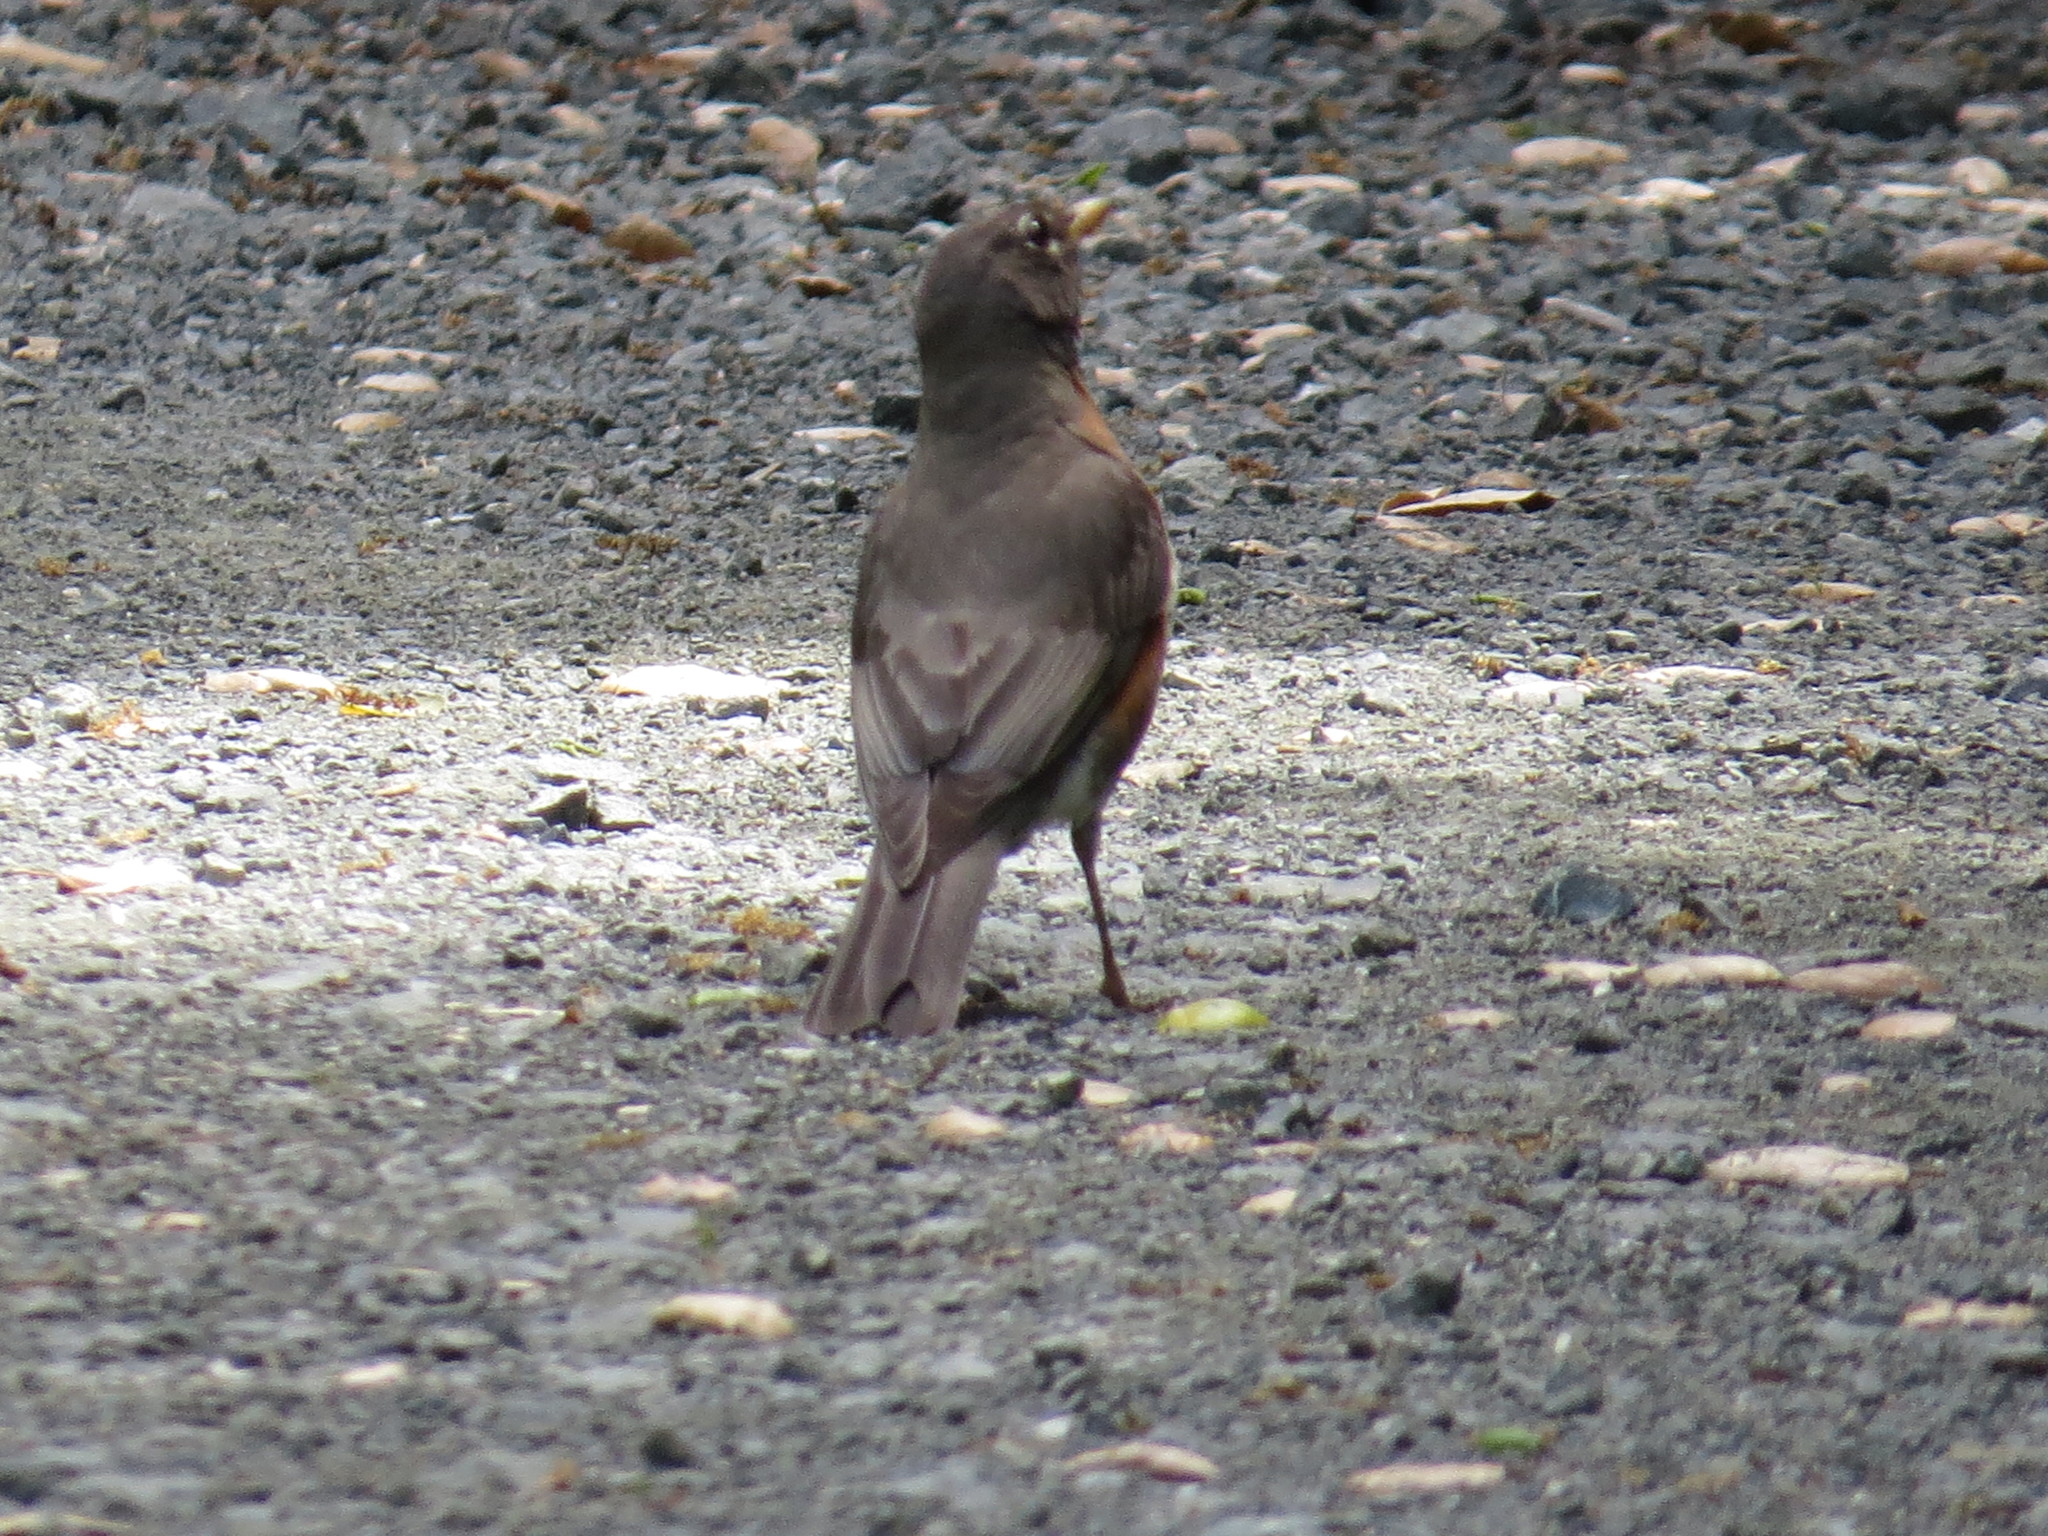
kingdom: Animalia
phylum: Chordata
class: Aves
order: Passeriformes
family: Turdidae
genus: Turdus
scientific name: Turdus migratorius
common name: American robin
